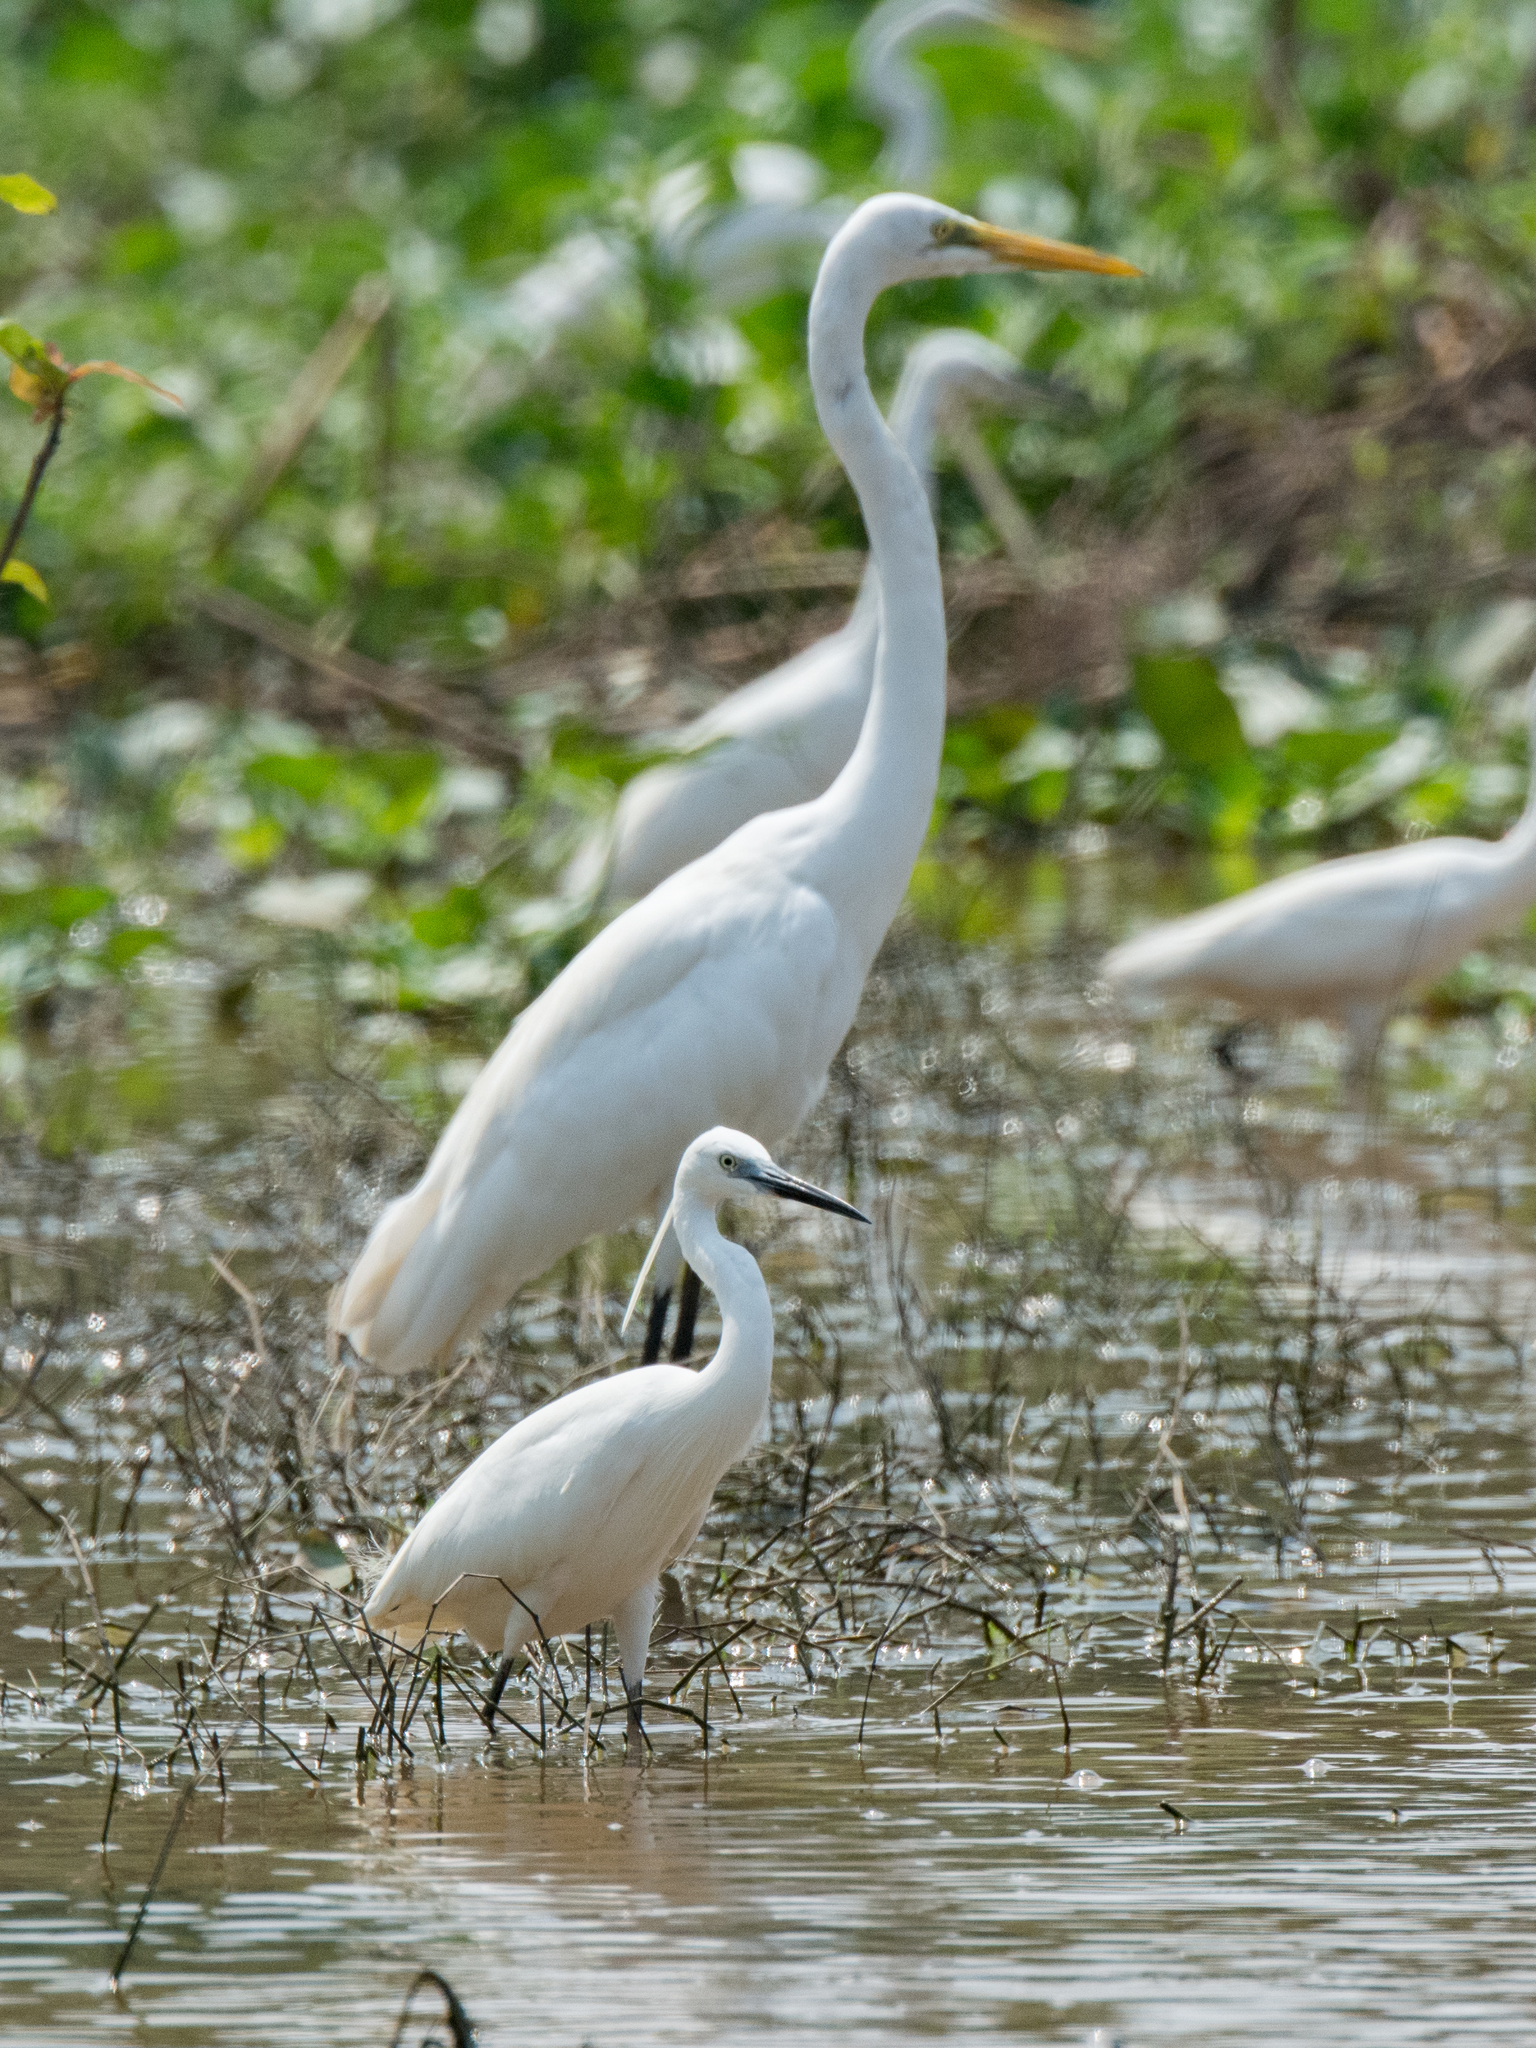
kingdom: Animalia
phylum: Chordata
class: Aves
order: Pelecaniformes
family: Ardeidae
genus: Ardea
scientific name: Ardea alba
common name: Great egret
